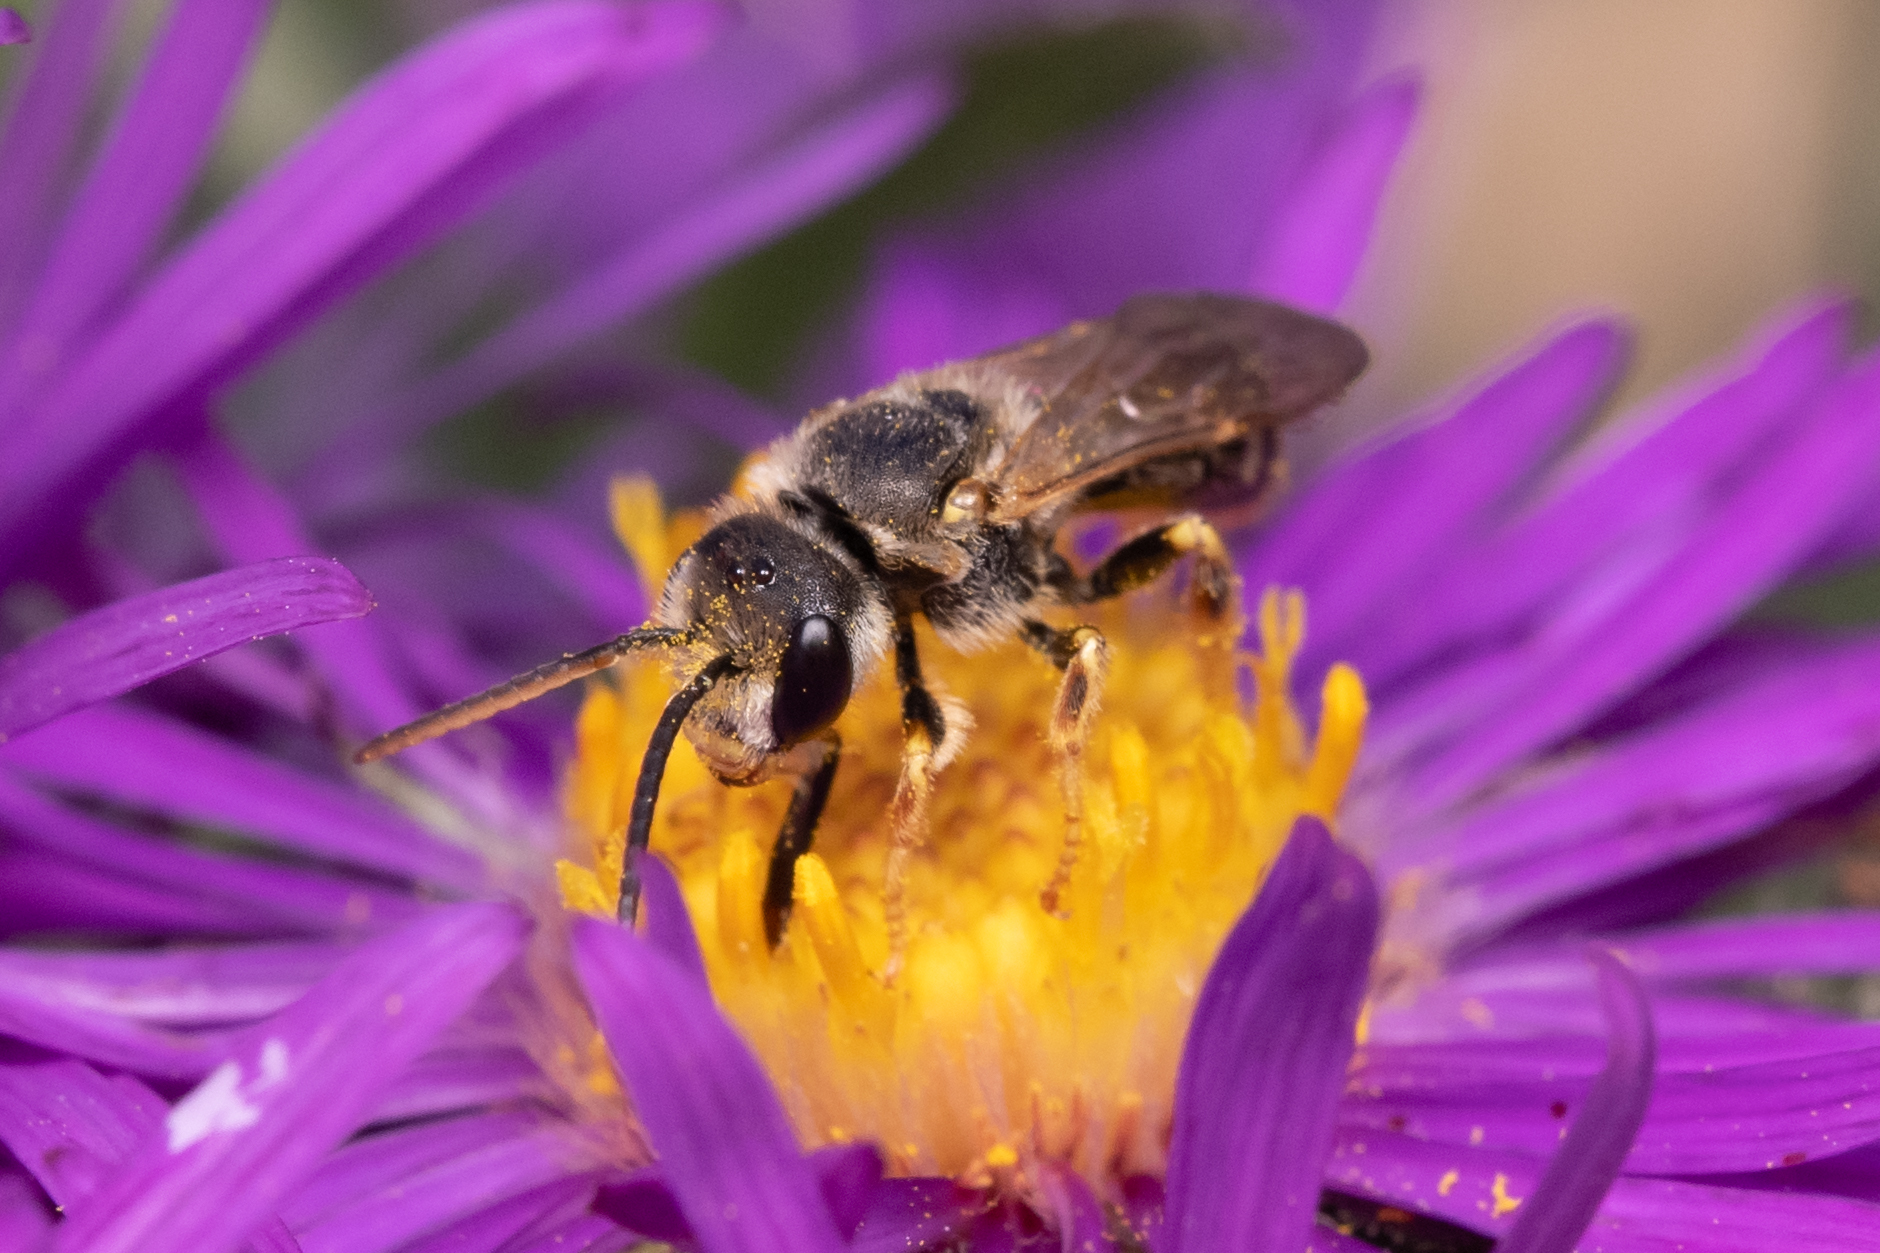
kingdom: Animalia
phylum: Arthropoda
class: Insecta
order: Hymenoptera
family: Halictidae
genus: Halictus
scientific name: Halictus ligatus
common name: Ligated furrow bee
